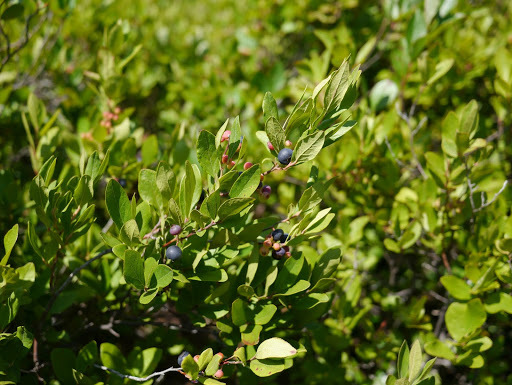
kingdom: Plantae
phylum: Tracheophyta
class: Magnoliopsida
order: Ericales
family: Ericaceae
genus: Gaylussacia
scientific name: Gaylussacia baccata
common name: Black huckleberry
